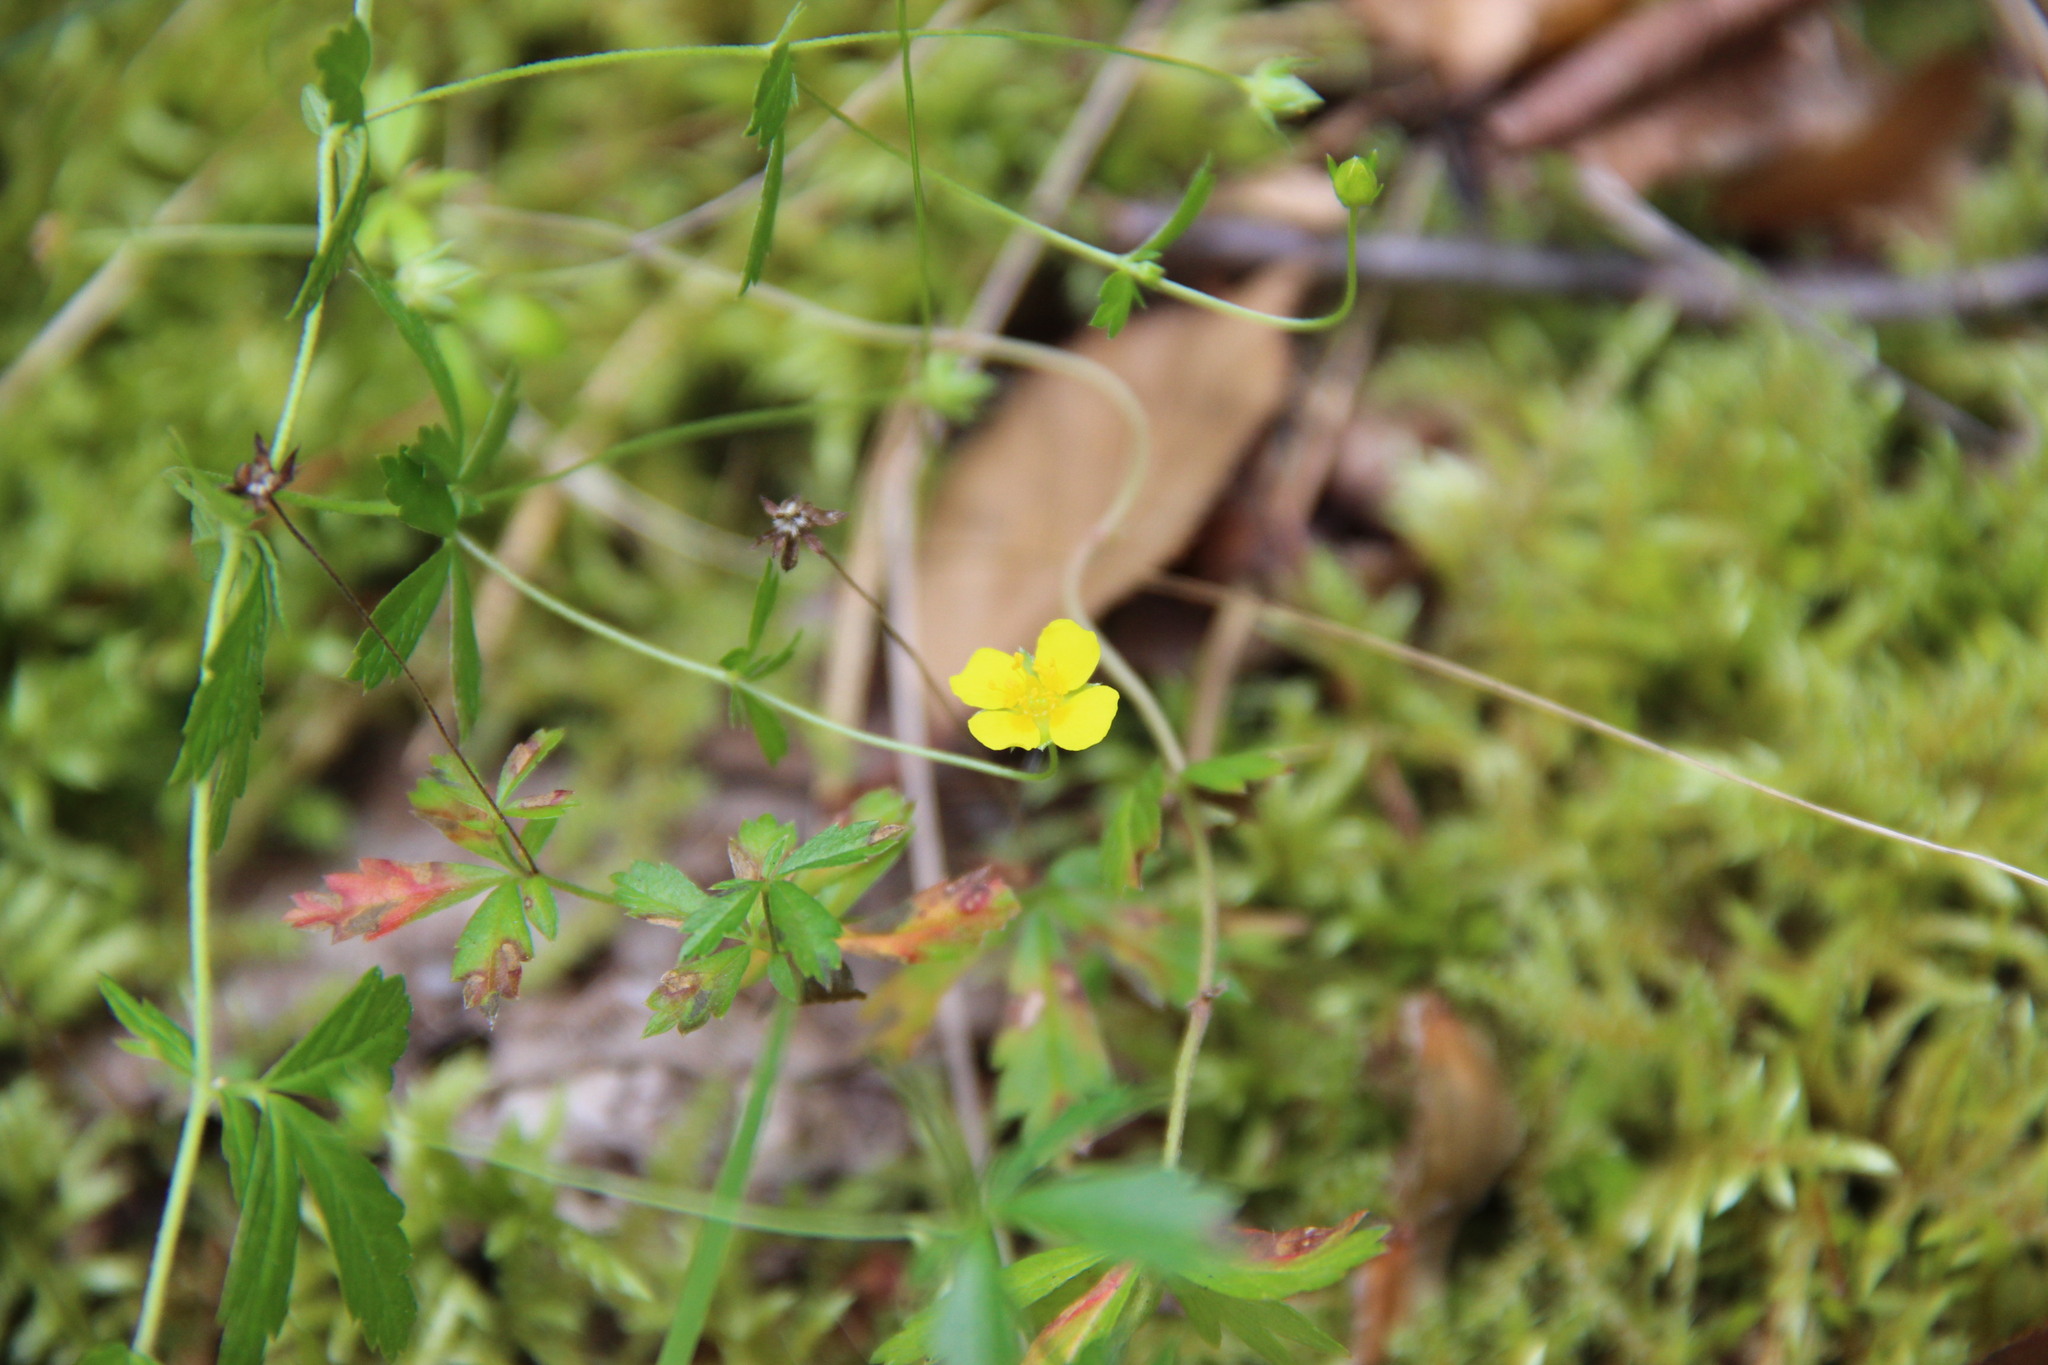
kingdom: Plantae
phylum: Tracheophyta
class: Magnoliopsida
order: Rosales
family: Rosaceae
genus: Potentilla
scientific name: Potentilla erecta
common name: Tormentil
